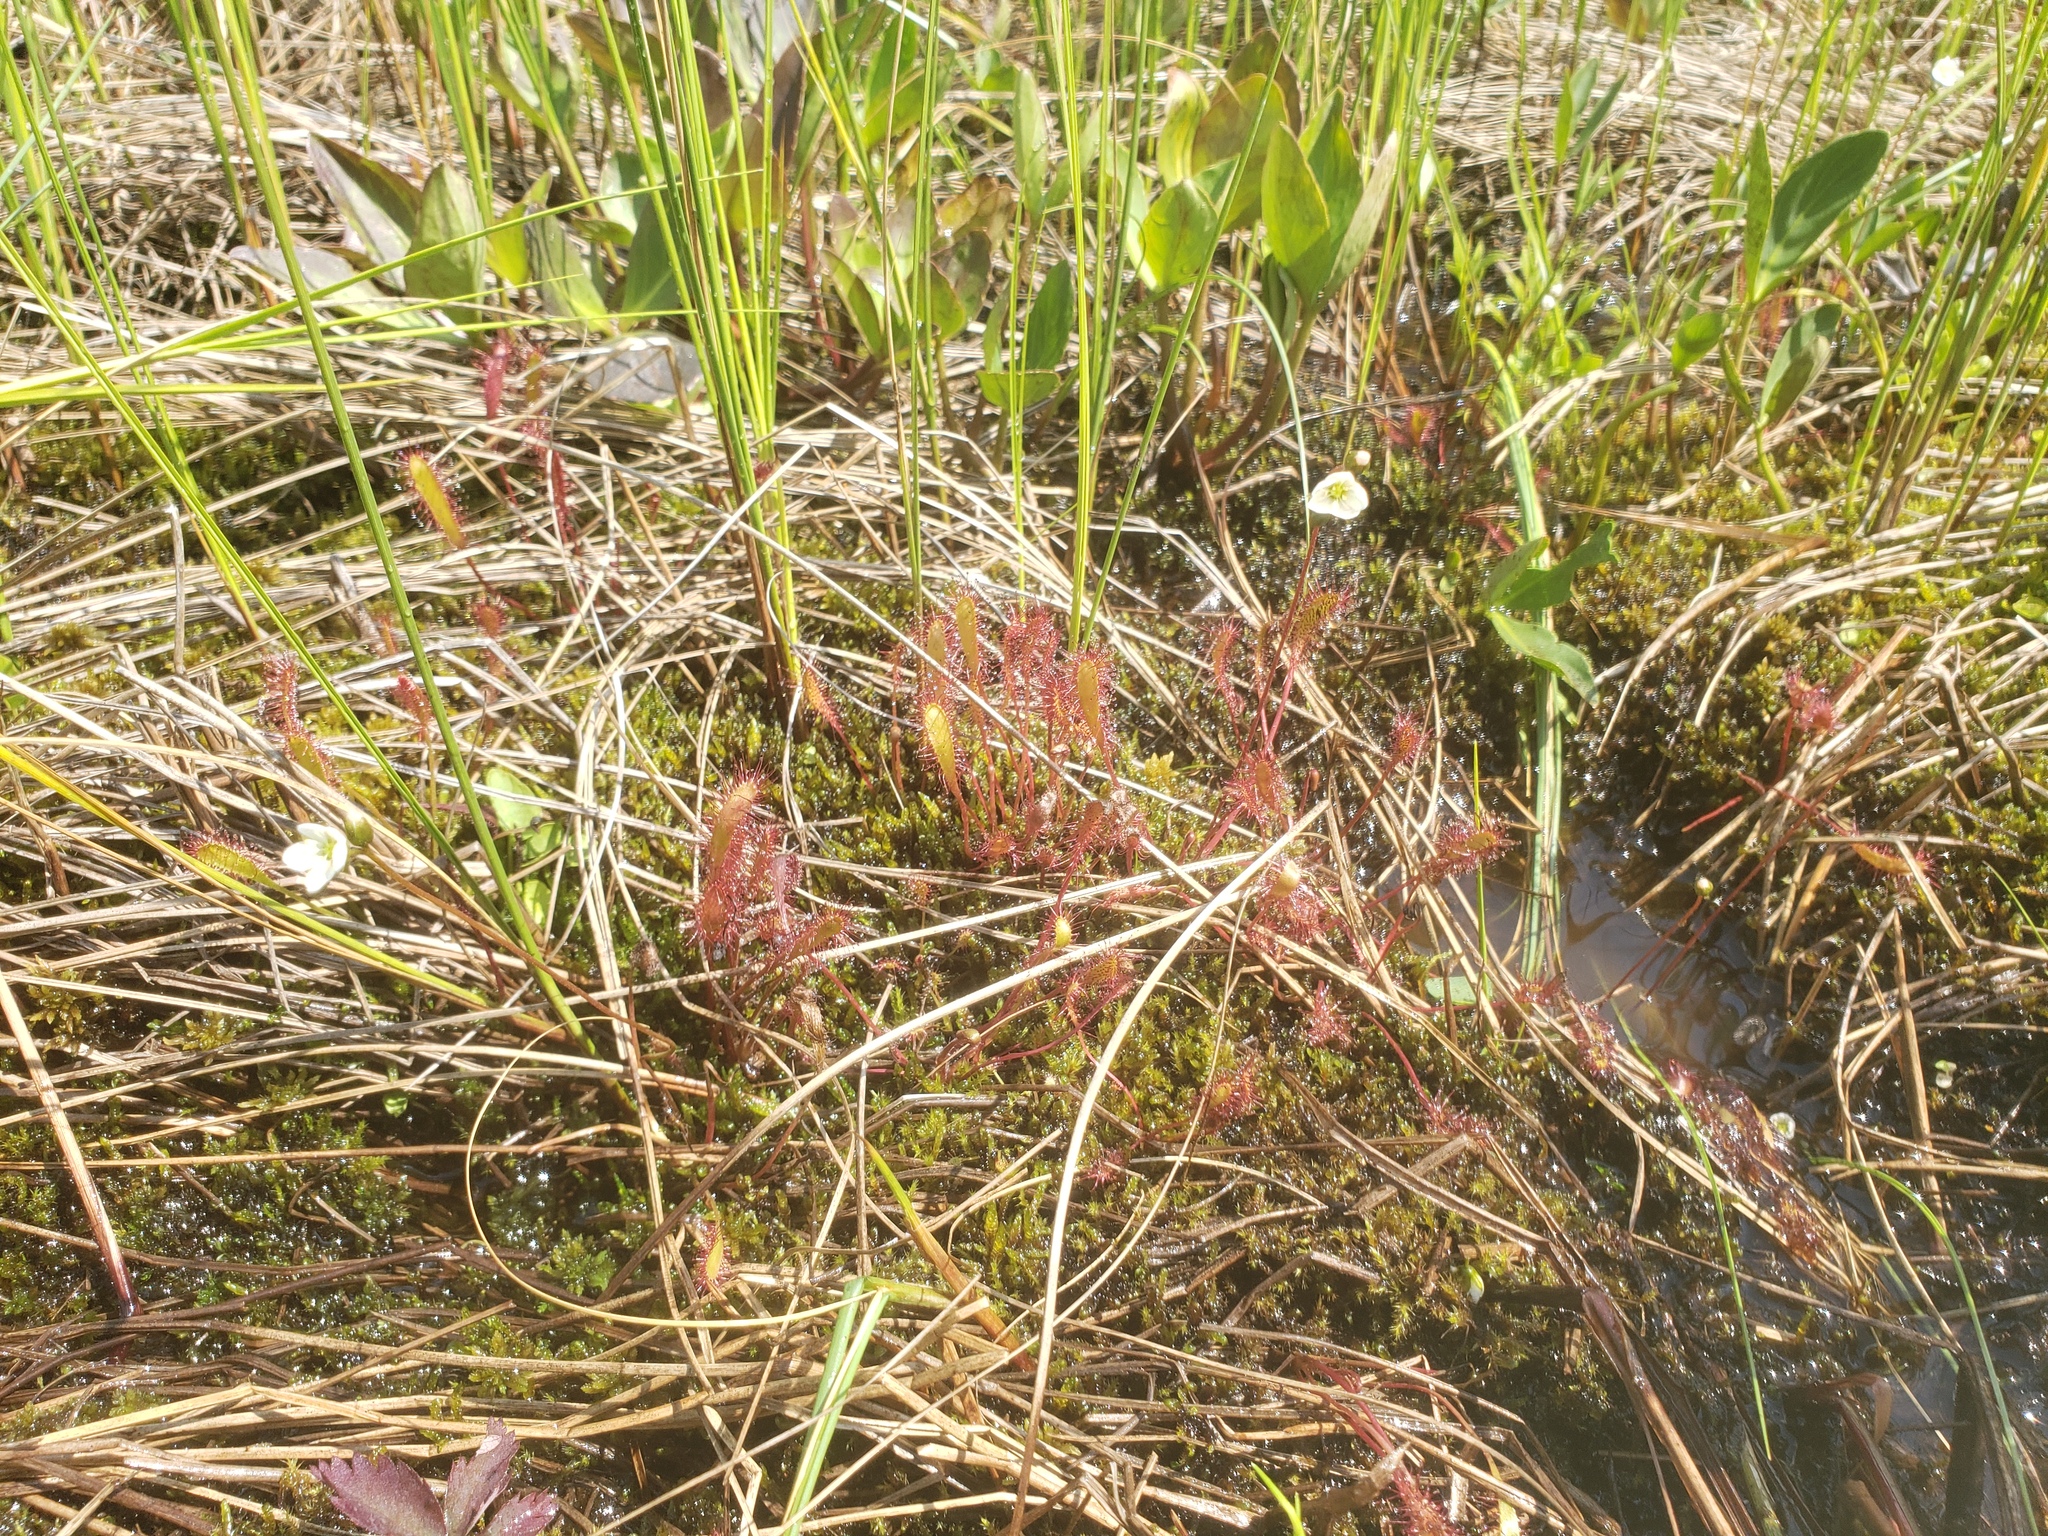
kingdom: Plantae
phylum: Tracheophyta
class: Magnoliopsida
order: Caryophyllales
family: Droseraceae
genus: Drosera
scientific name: Drosera anglica
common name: Great sundew
